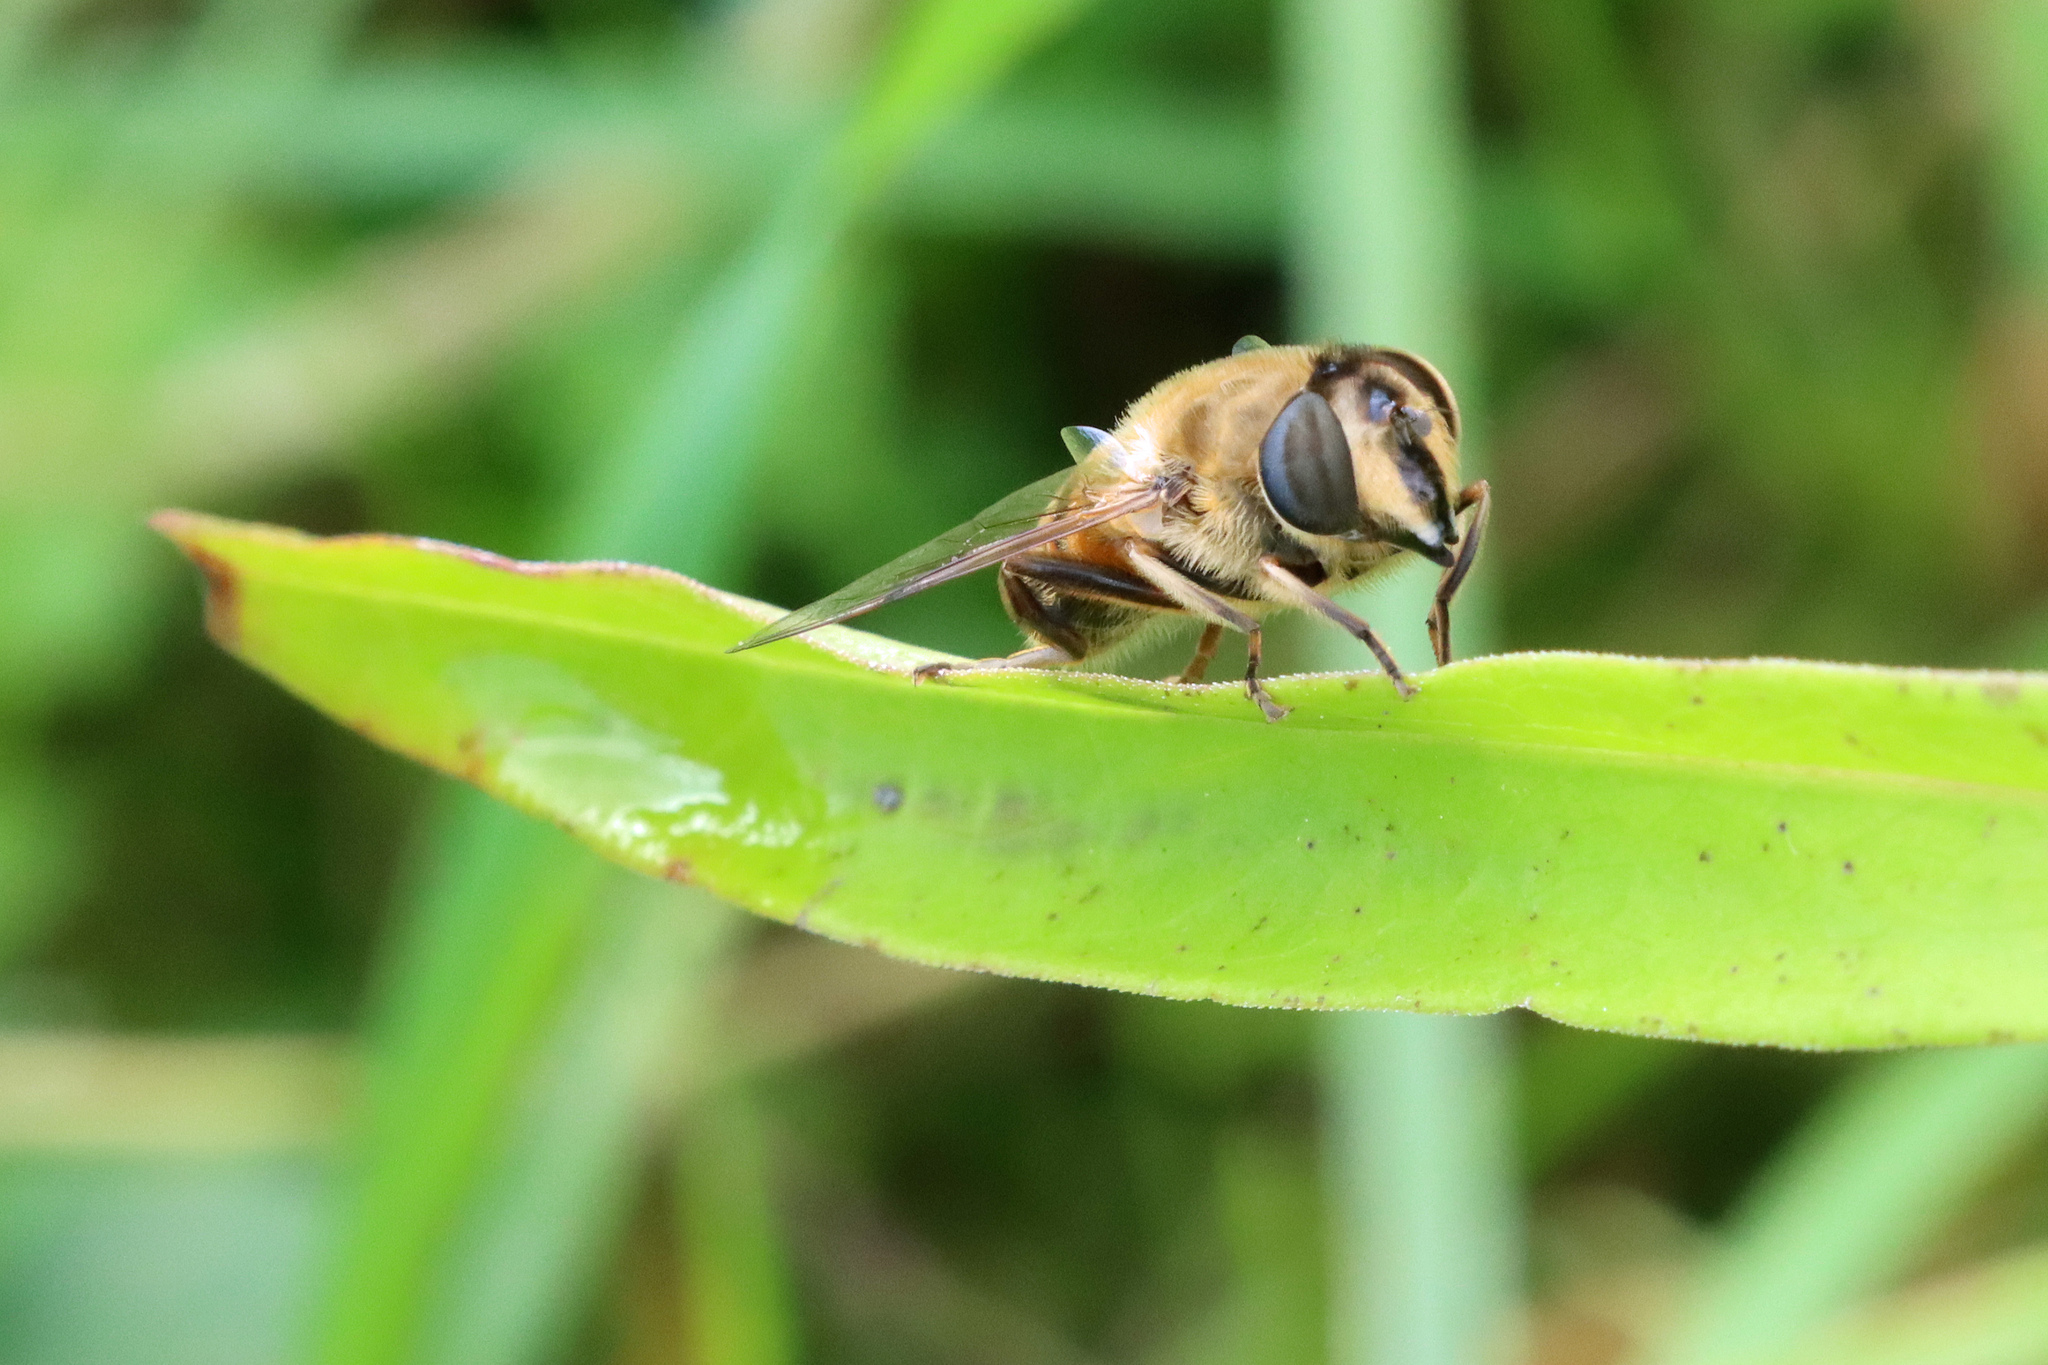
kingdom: Animalia
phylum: Arthropoda
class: Insecta
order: Diptera
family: Syrphidae
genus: Eristalis
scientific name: Eristalis tenax
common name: Drone fly
